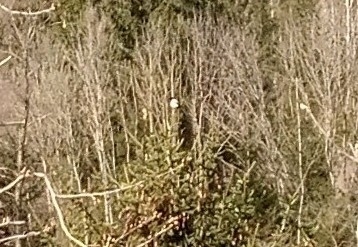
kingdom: Animalia
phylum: Chordata
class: Aves
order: Passeriformes
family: Corvidae
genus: Pica
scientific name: Pica pica
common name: Eurasian magpie
